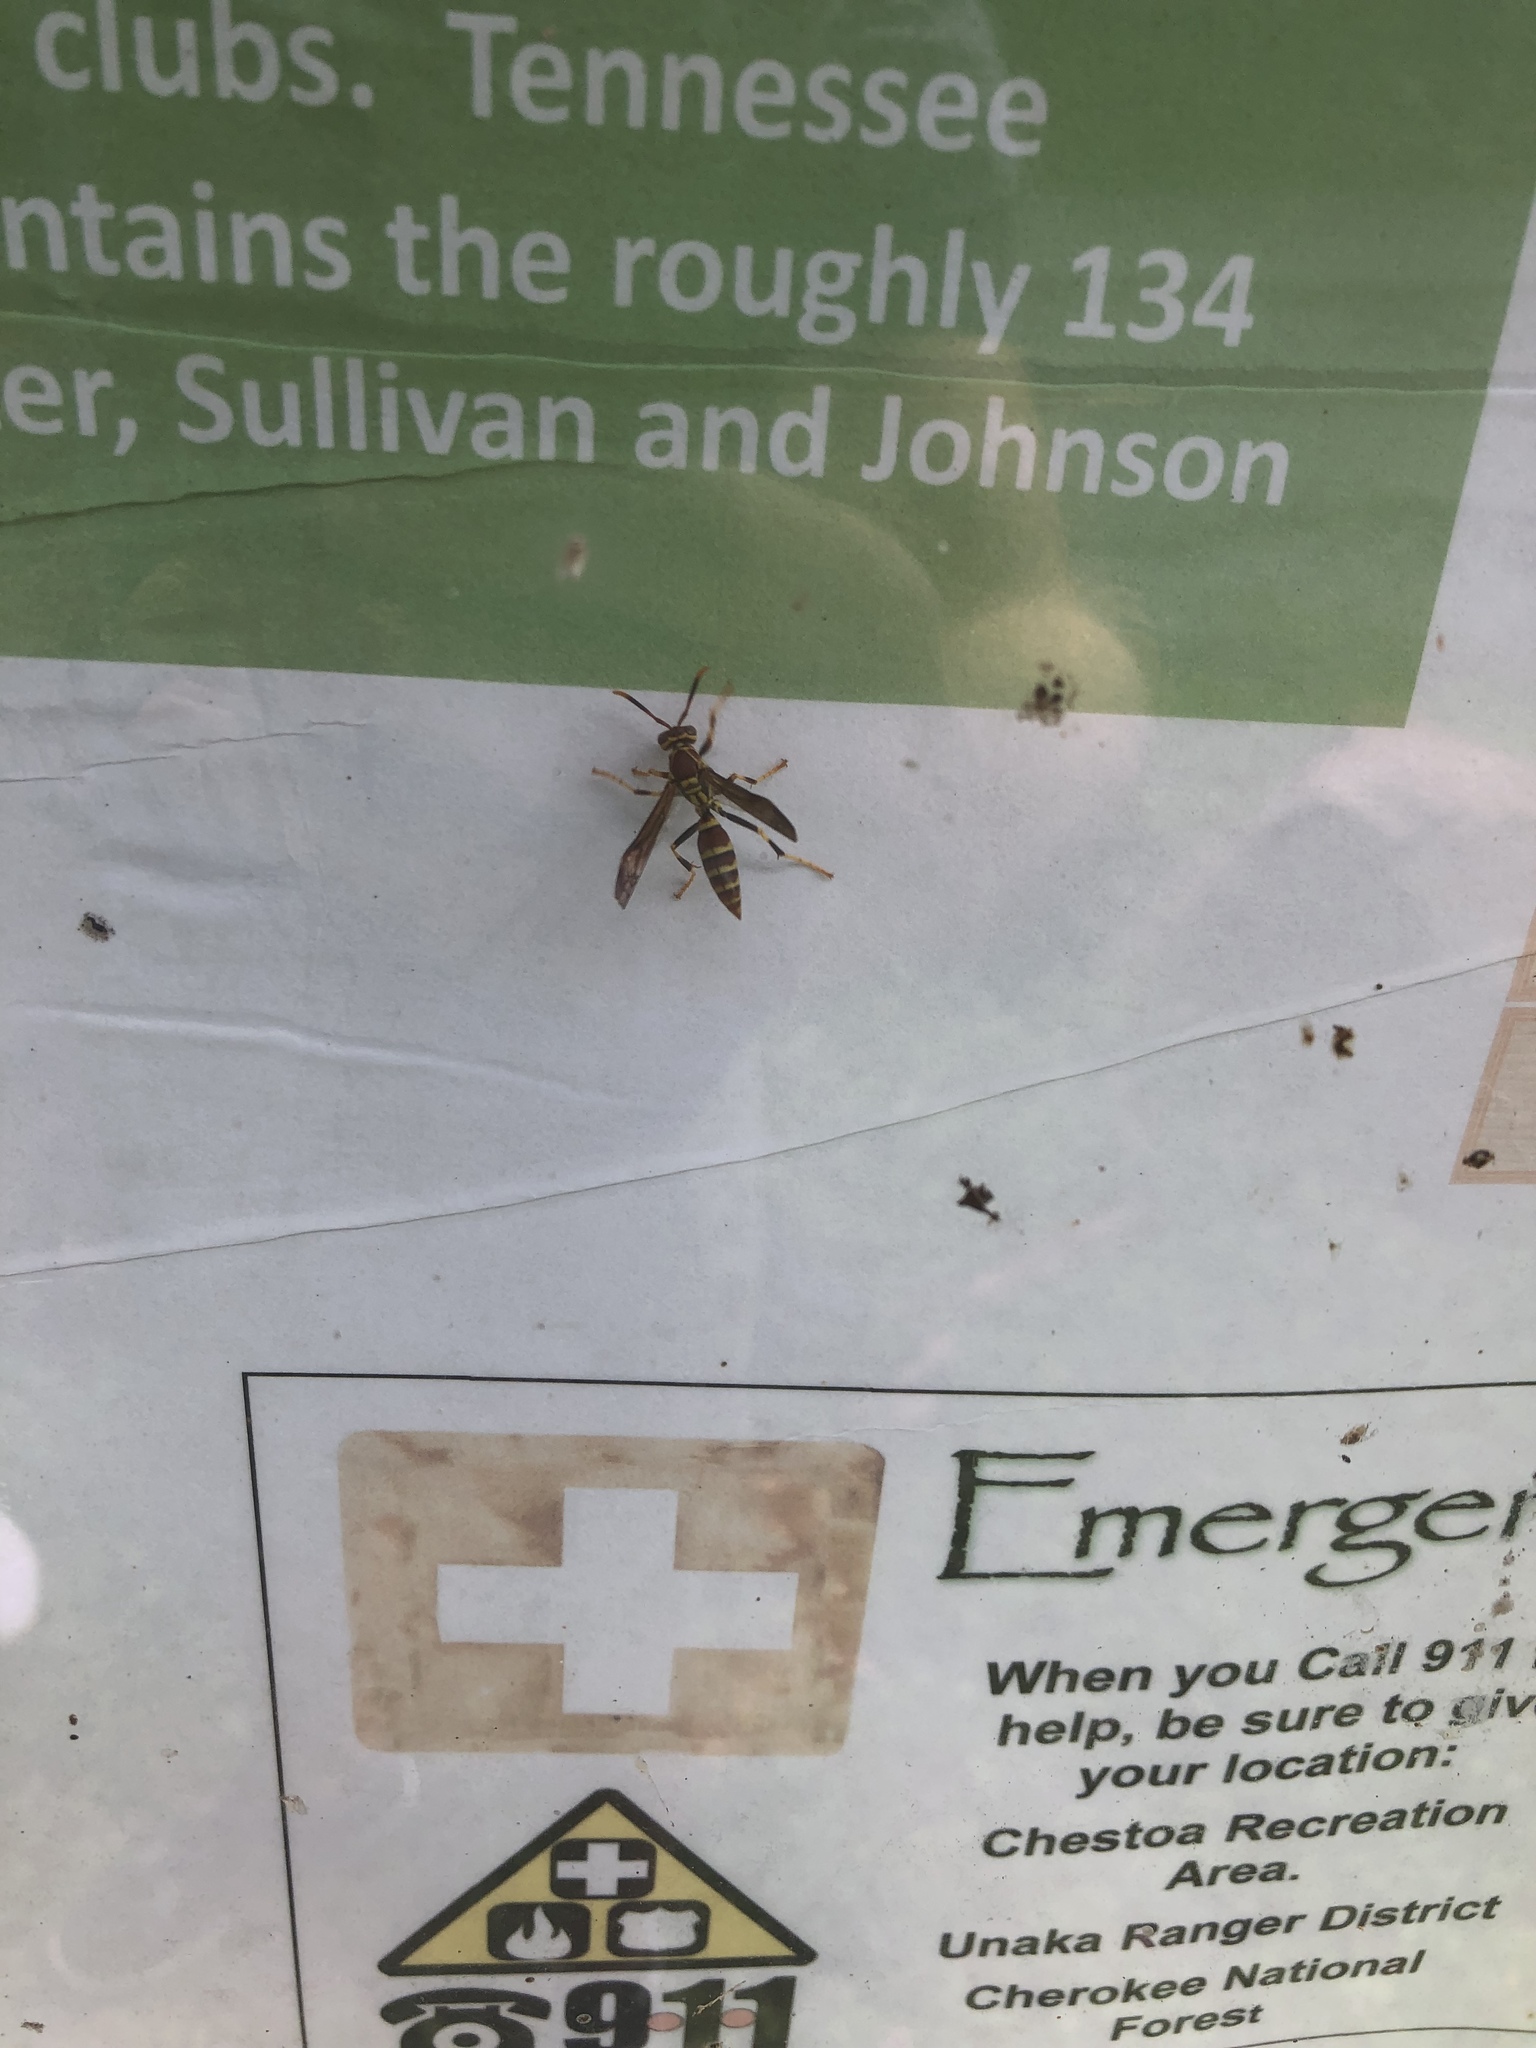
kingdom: Animalia
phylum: Arthropoda
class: Insecta
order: Hymenoptera
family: Eumenidae
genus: Polistes
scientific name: Polistes exclamans
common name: Paper wasp
